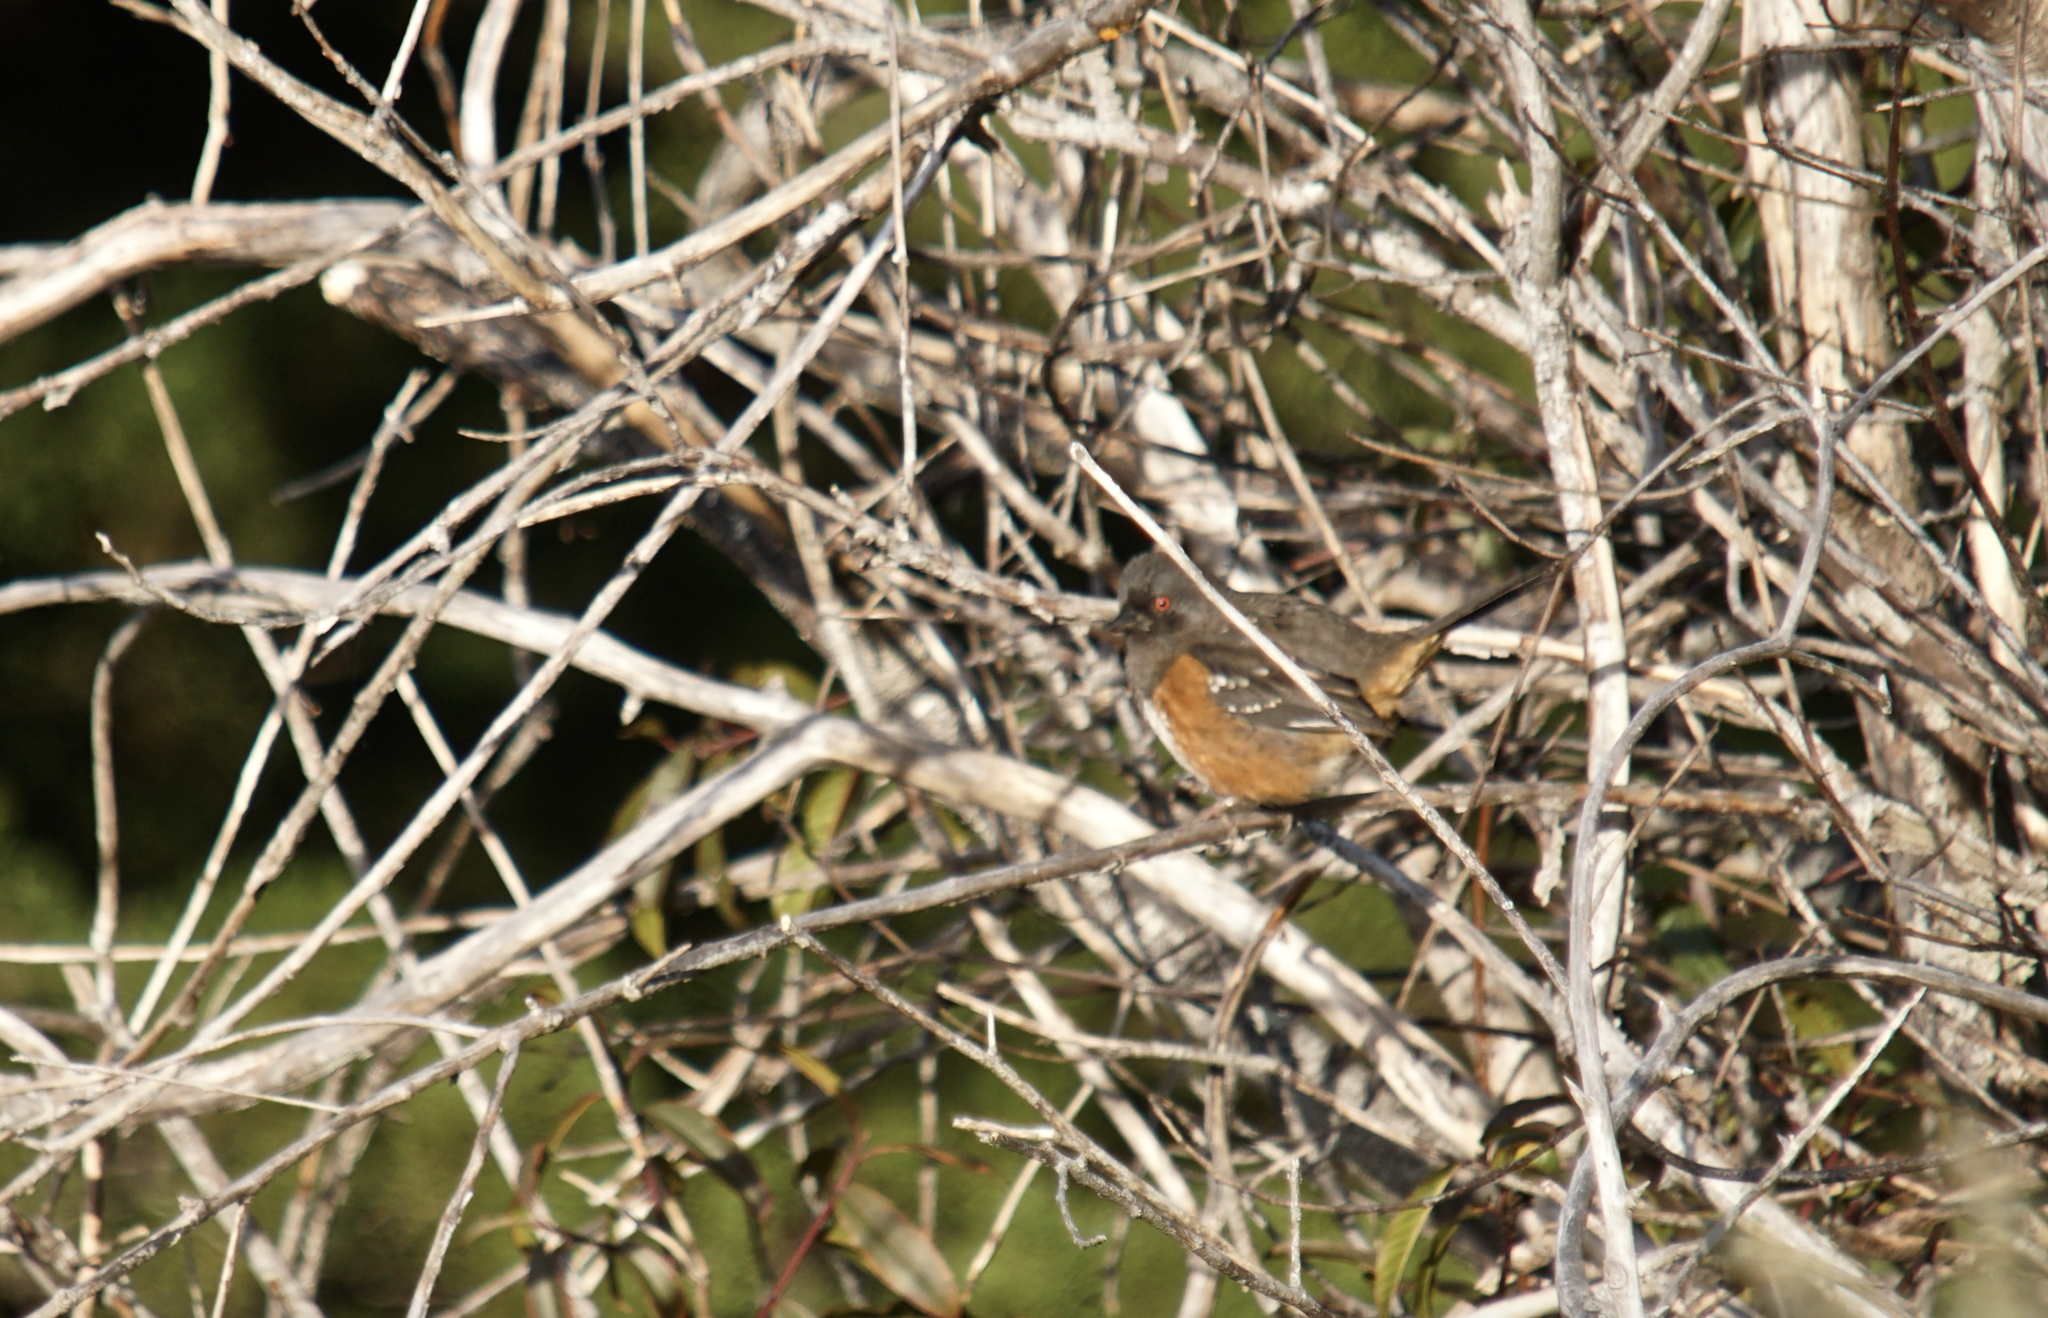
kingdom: Animalia
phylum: Chordata
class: Aves
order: Passeriformes
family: Passerellidae
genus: Pipilo
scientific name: Pipilo maculatus
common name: Spotted towhee
